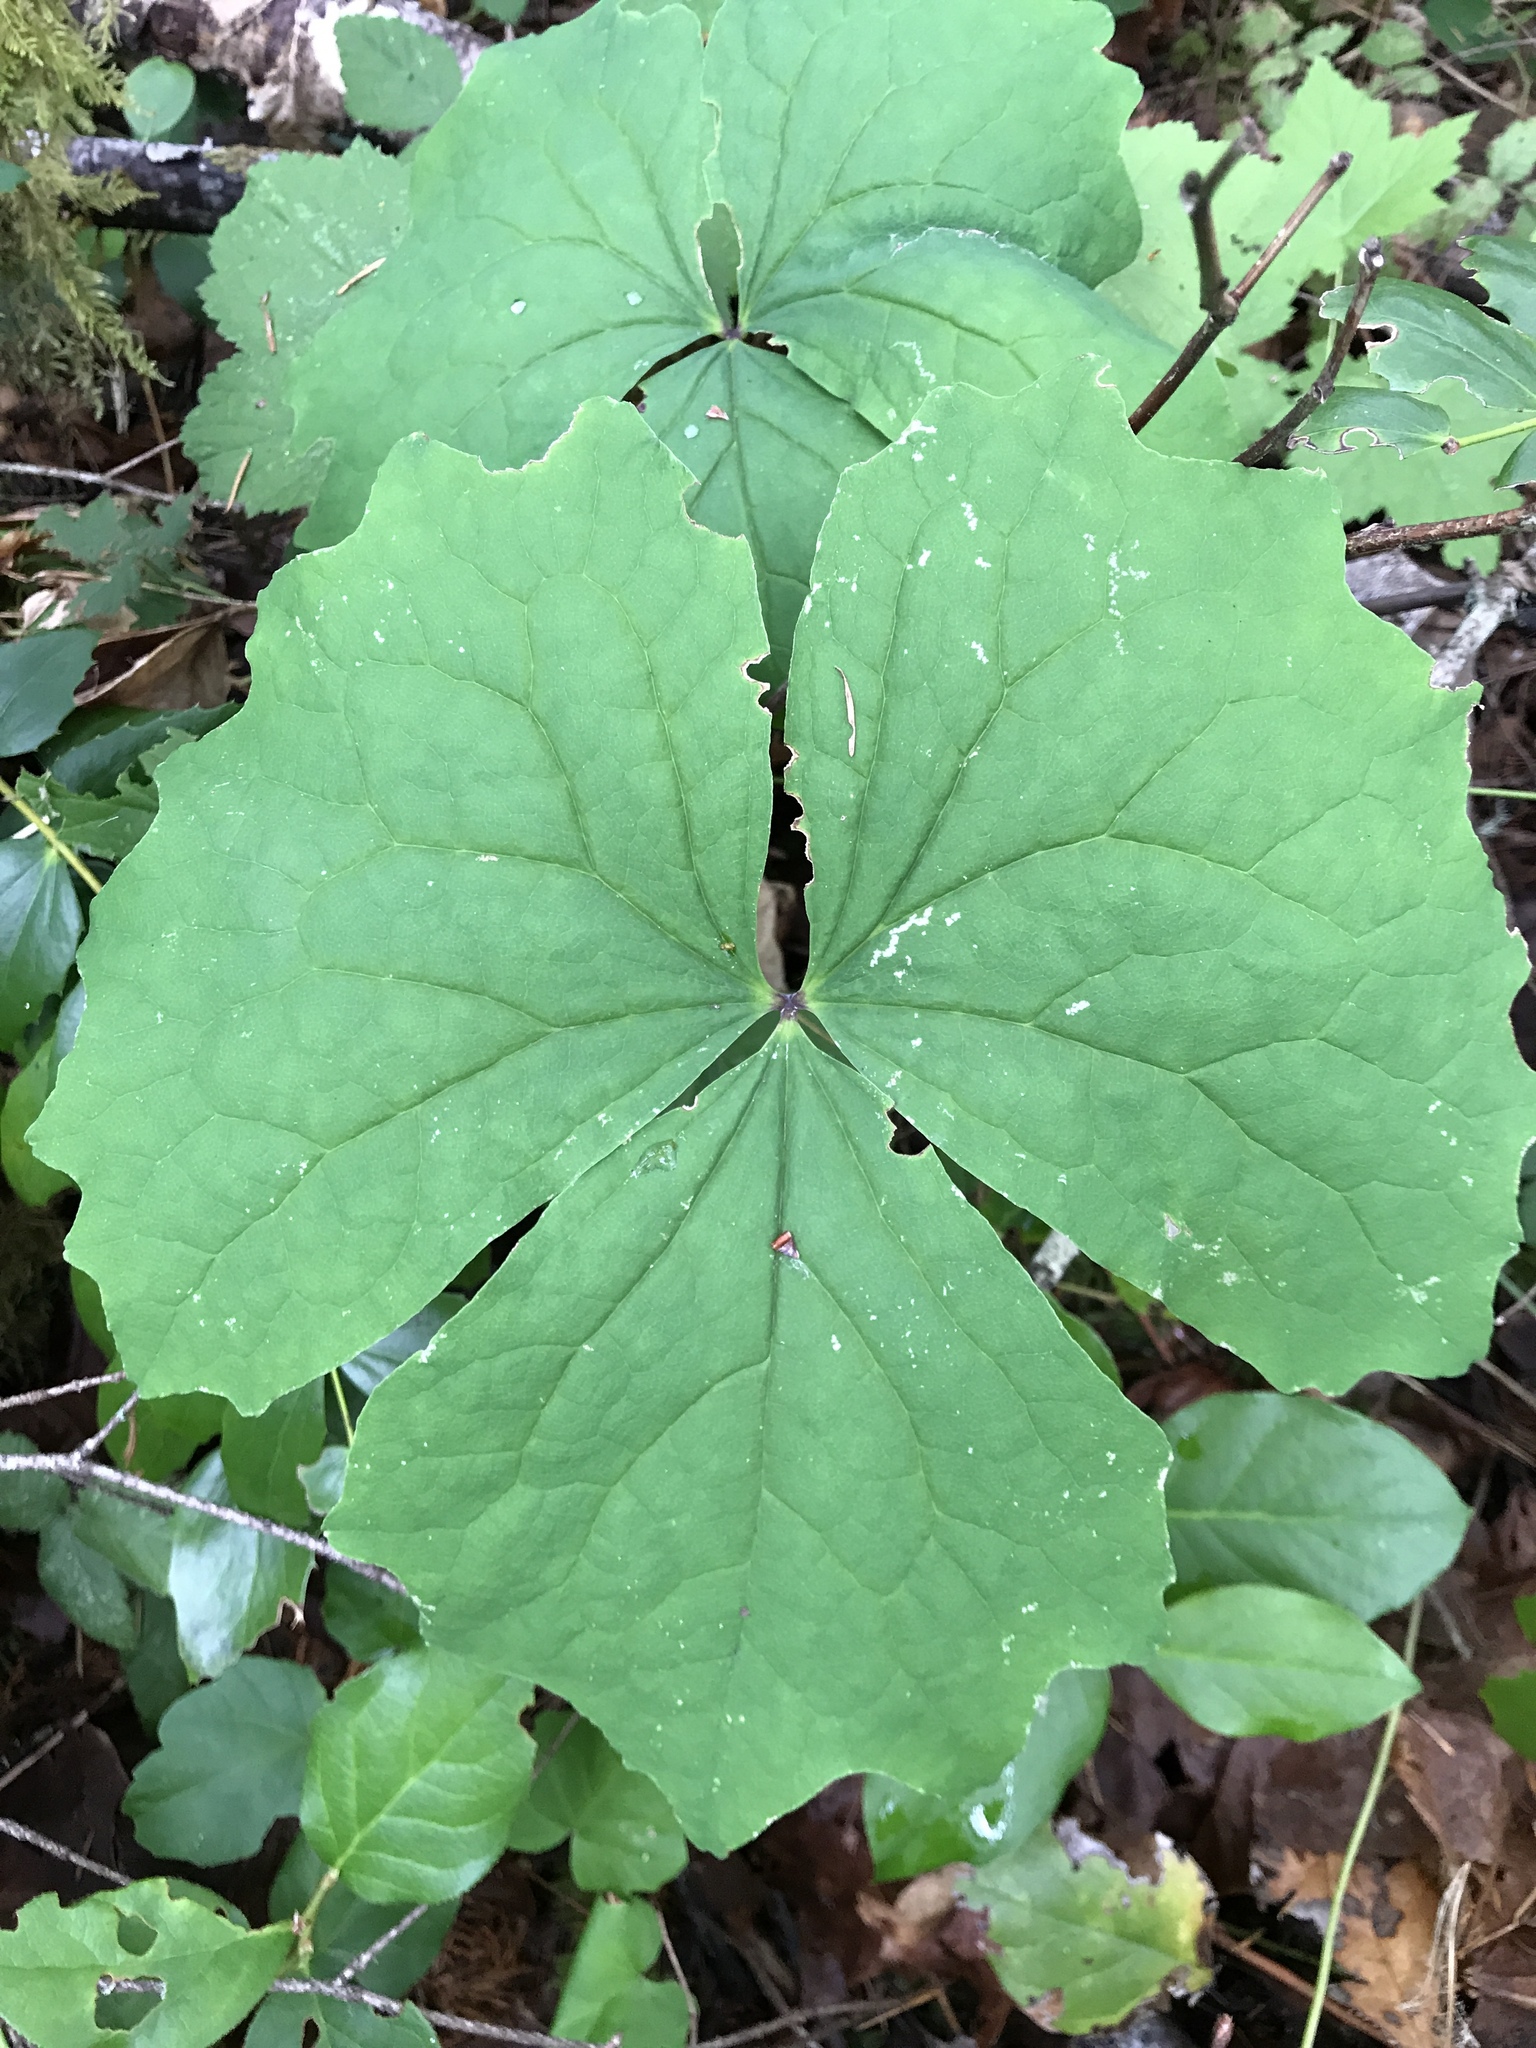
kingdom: Plantae
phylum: Tracheophyta
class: Magnoliopsida
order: Ranunculales
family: Berberidaceae
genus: Achlys
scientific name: Achlys triphylla
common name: Vanilla-leaf
